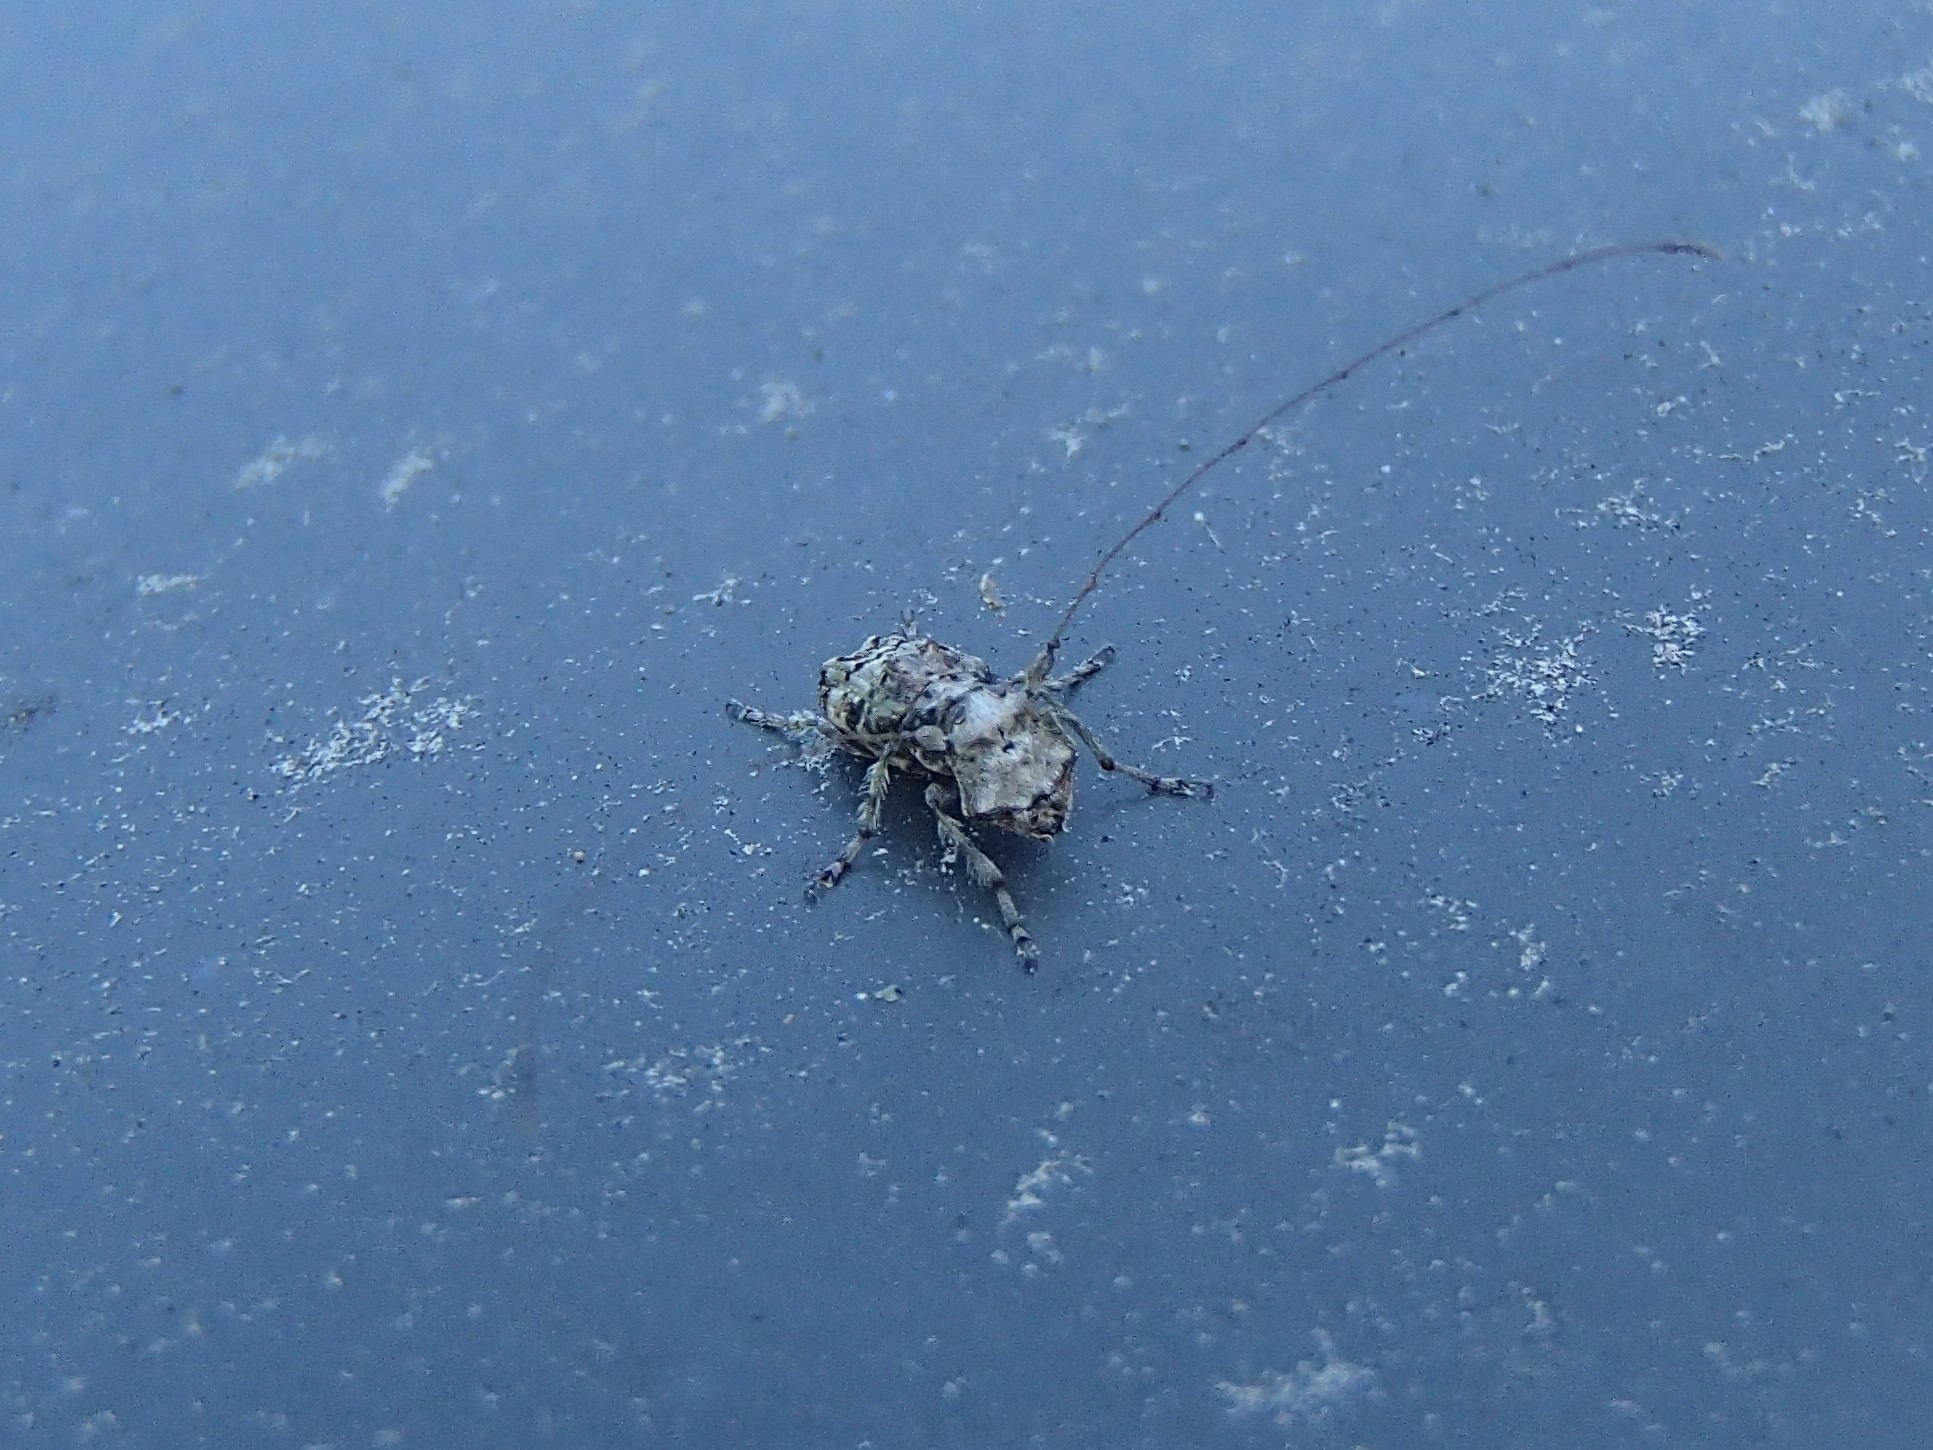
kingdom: Animalia
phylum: Arthropoda
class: Insecta
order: Coleoptera
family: Anthribidae
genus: Hoherius
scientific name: Hoherius
